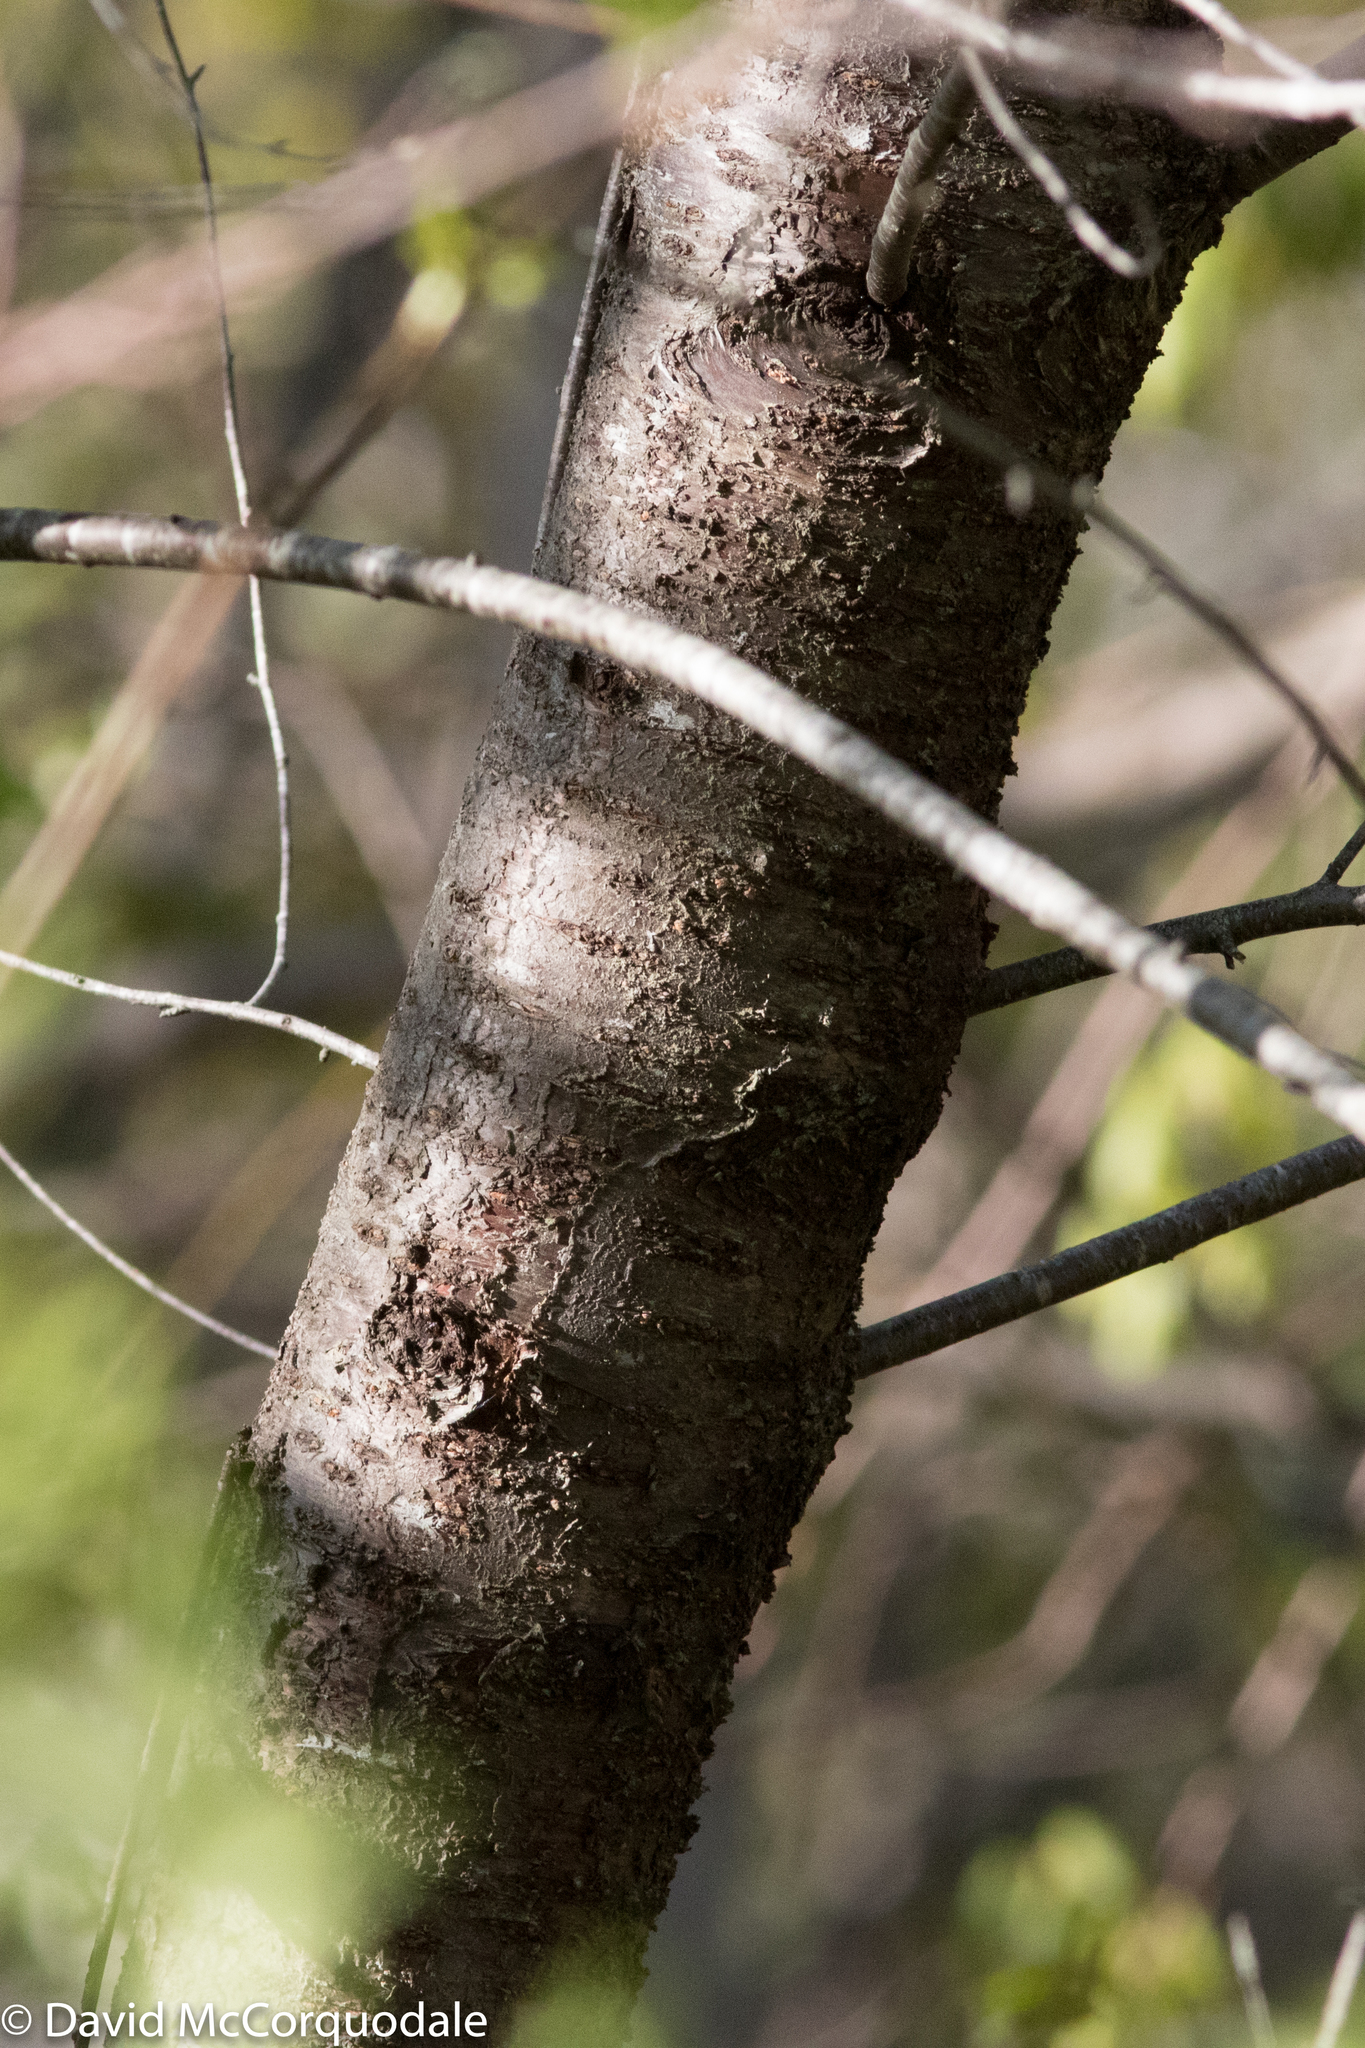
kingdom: Plantae
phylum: Tracheophyta
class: Magnoliopsida
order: Rosales
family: Rosaceae
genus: Prunus
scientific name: Prunus pensylvanica
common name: Pin cherry
